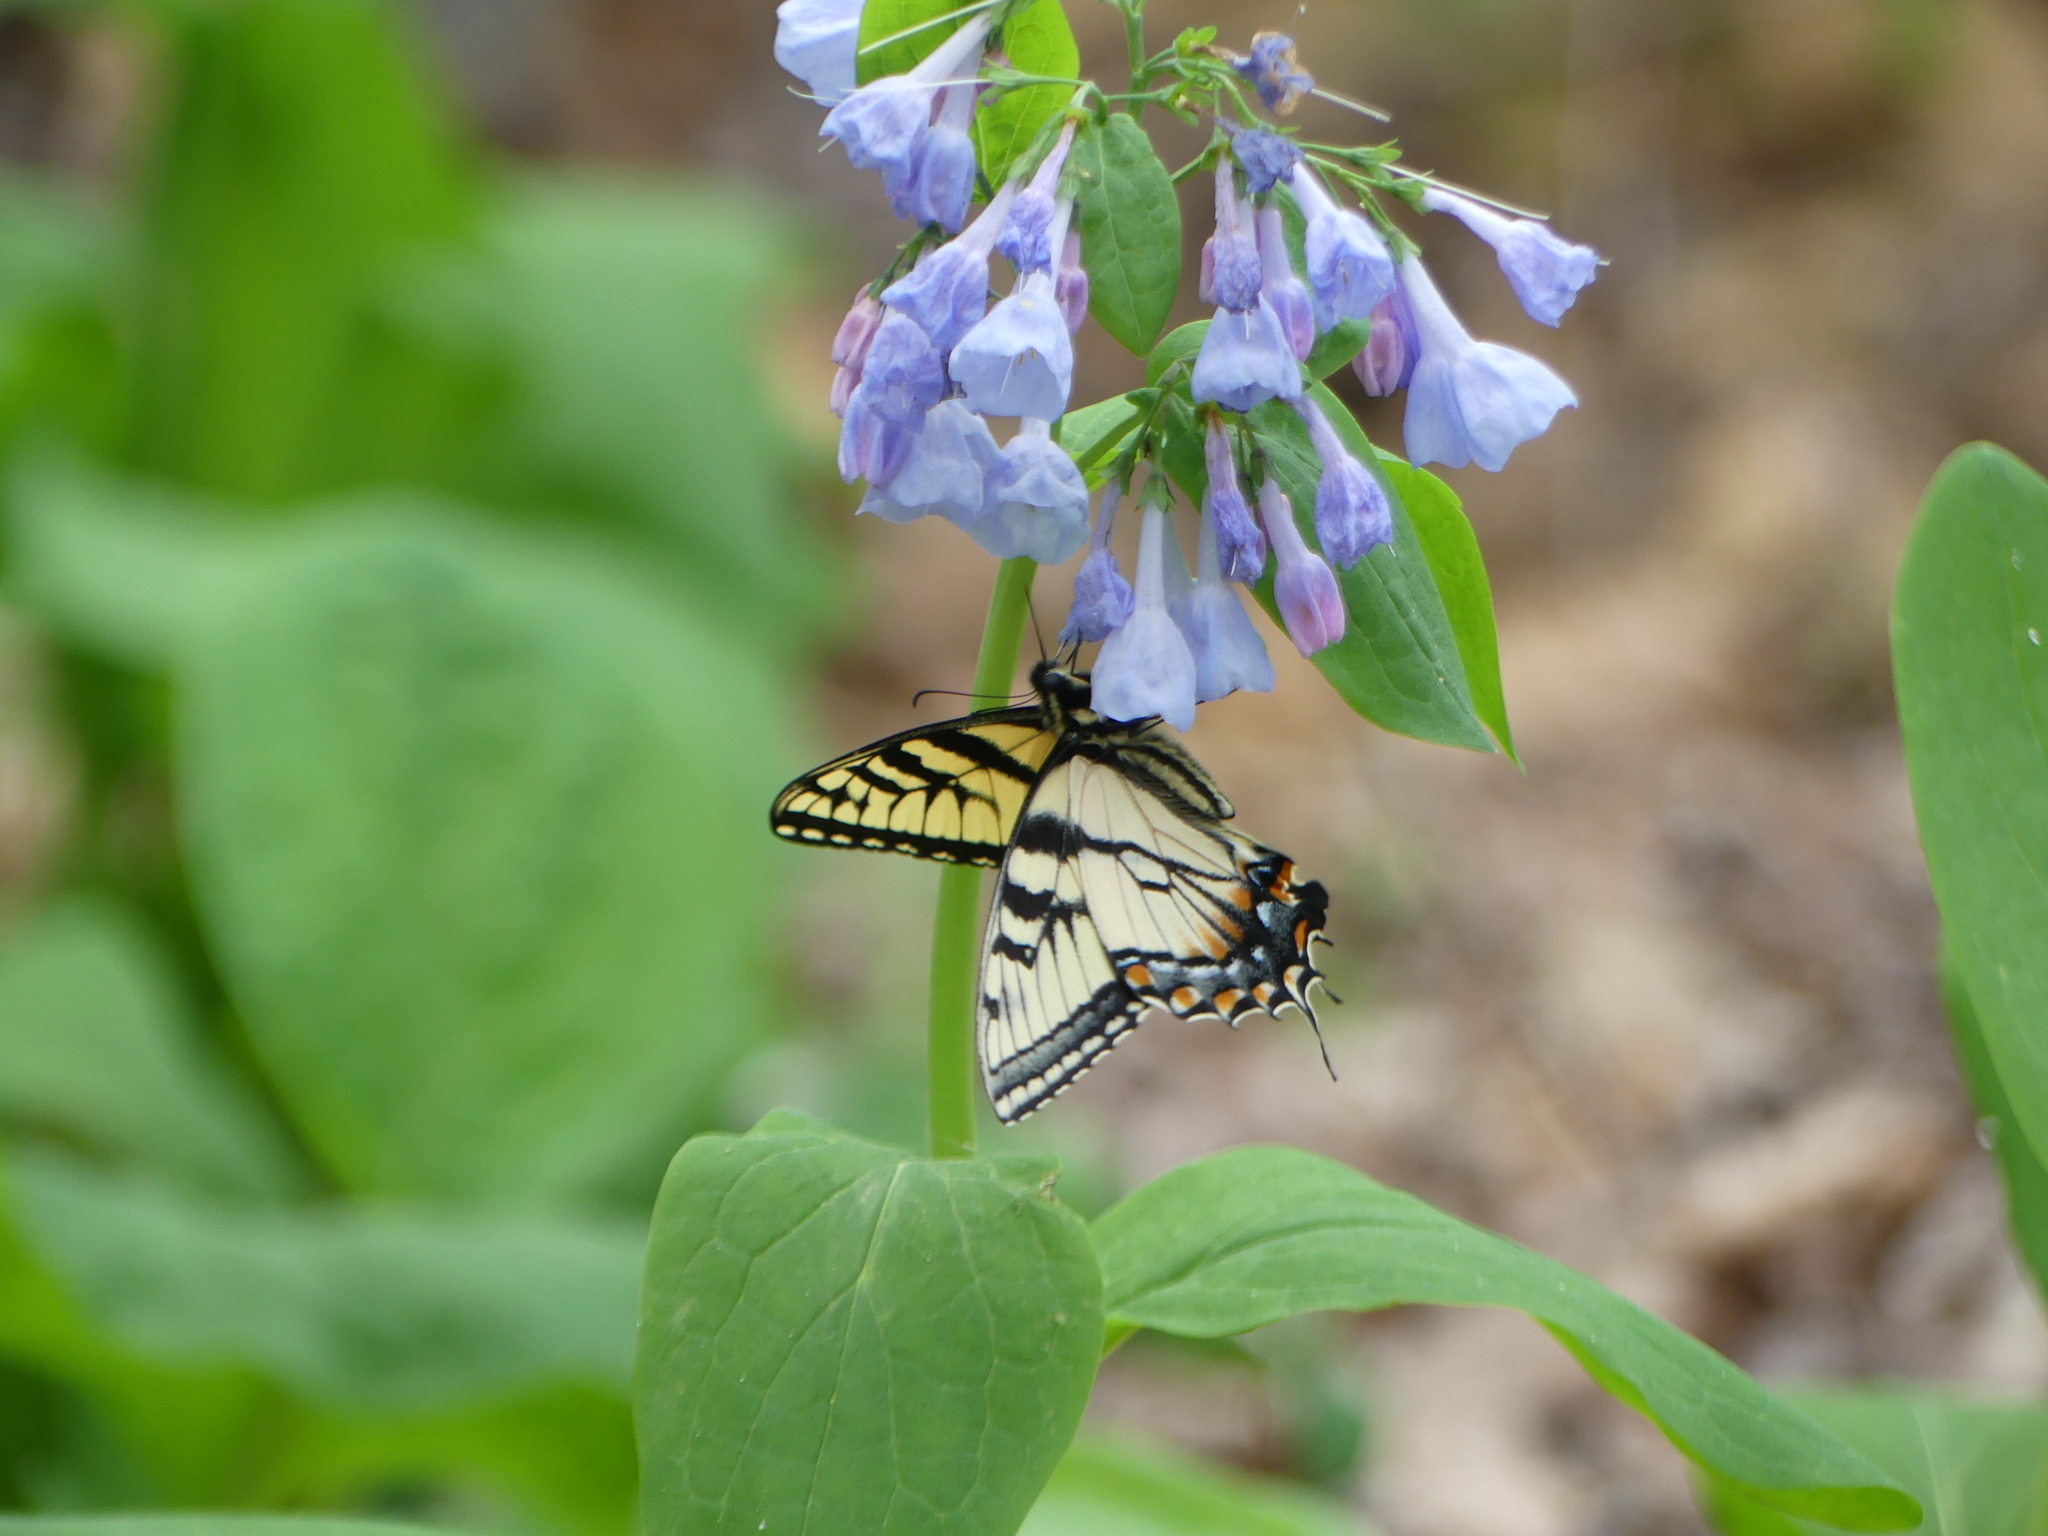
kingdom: Animalia
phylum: Arthropoda
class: Insecta
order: Lepidoptera
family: Papilionidae
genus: Papilio
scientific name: Papilio glaucus
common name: Tiger swallowtail
